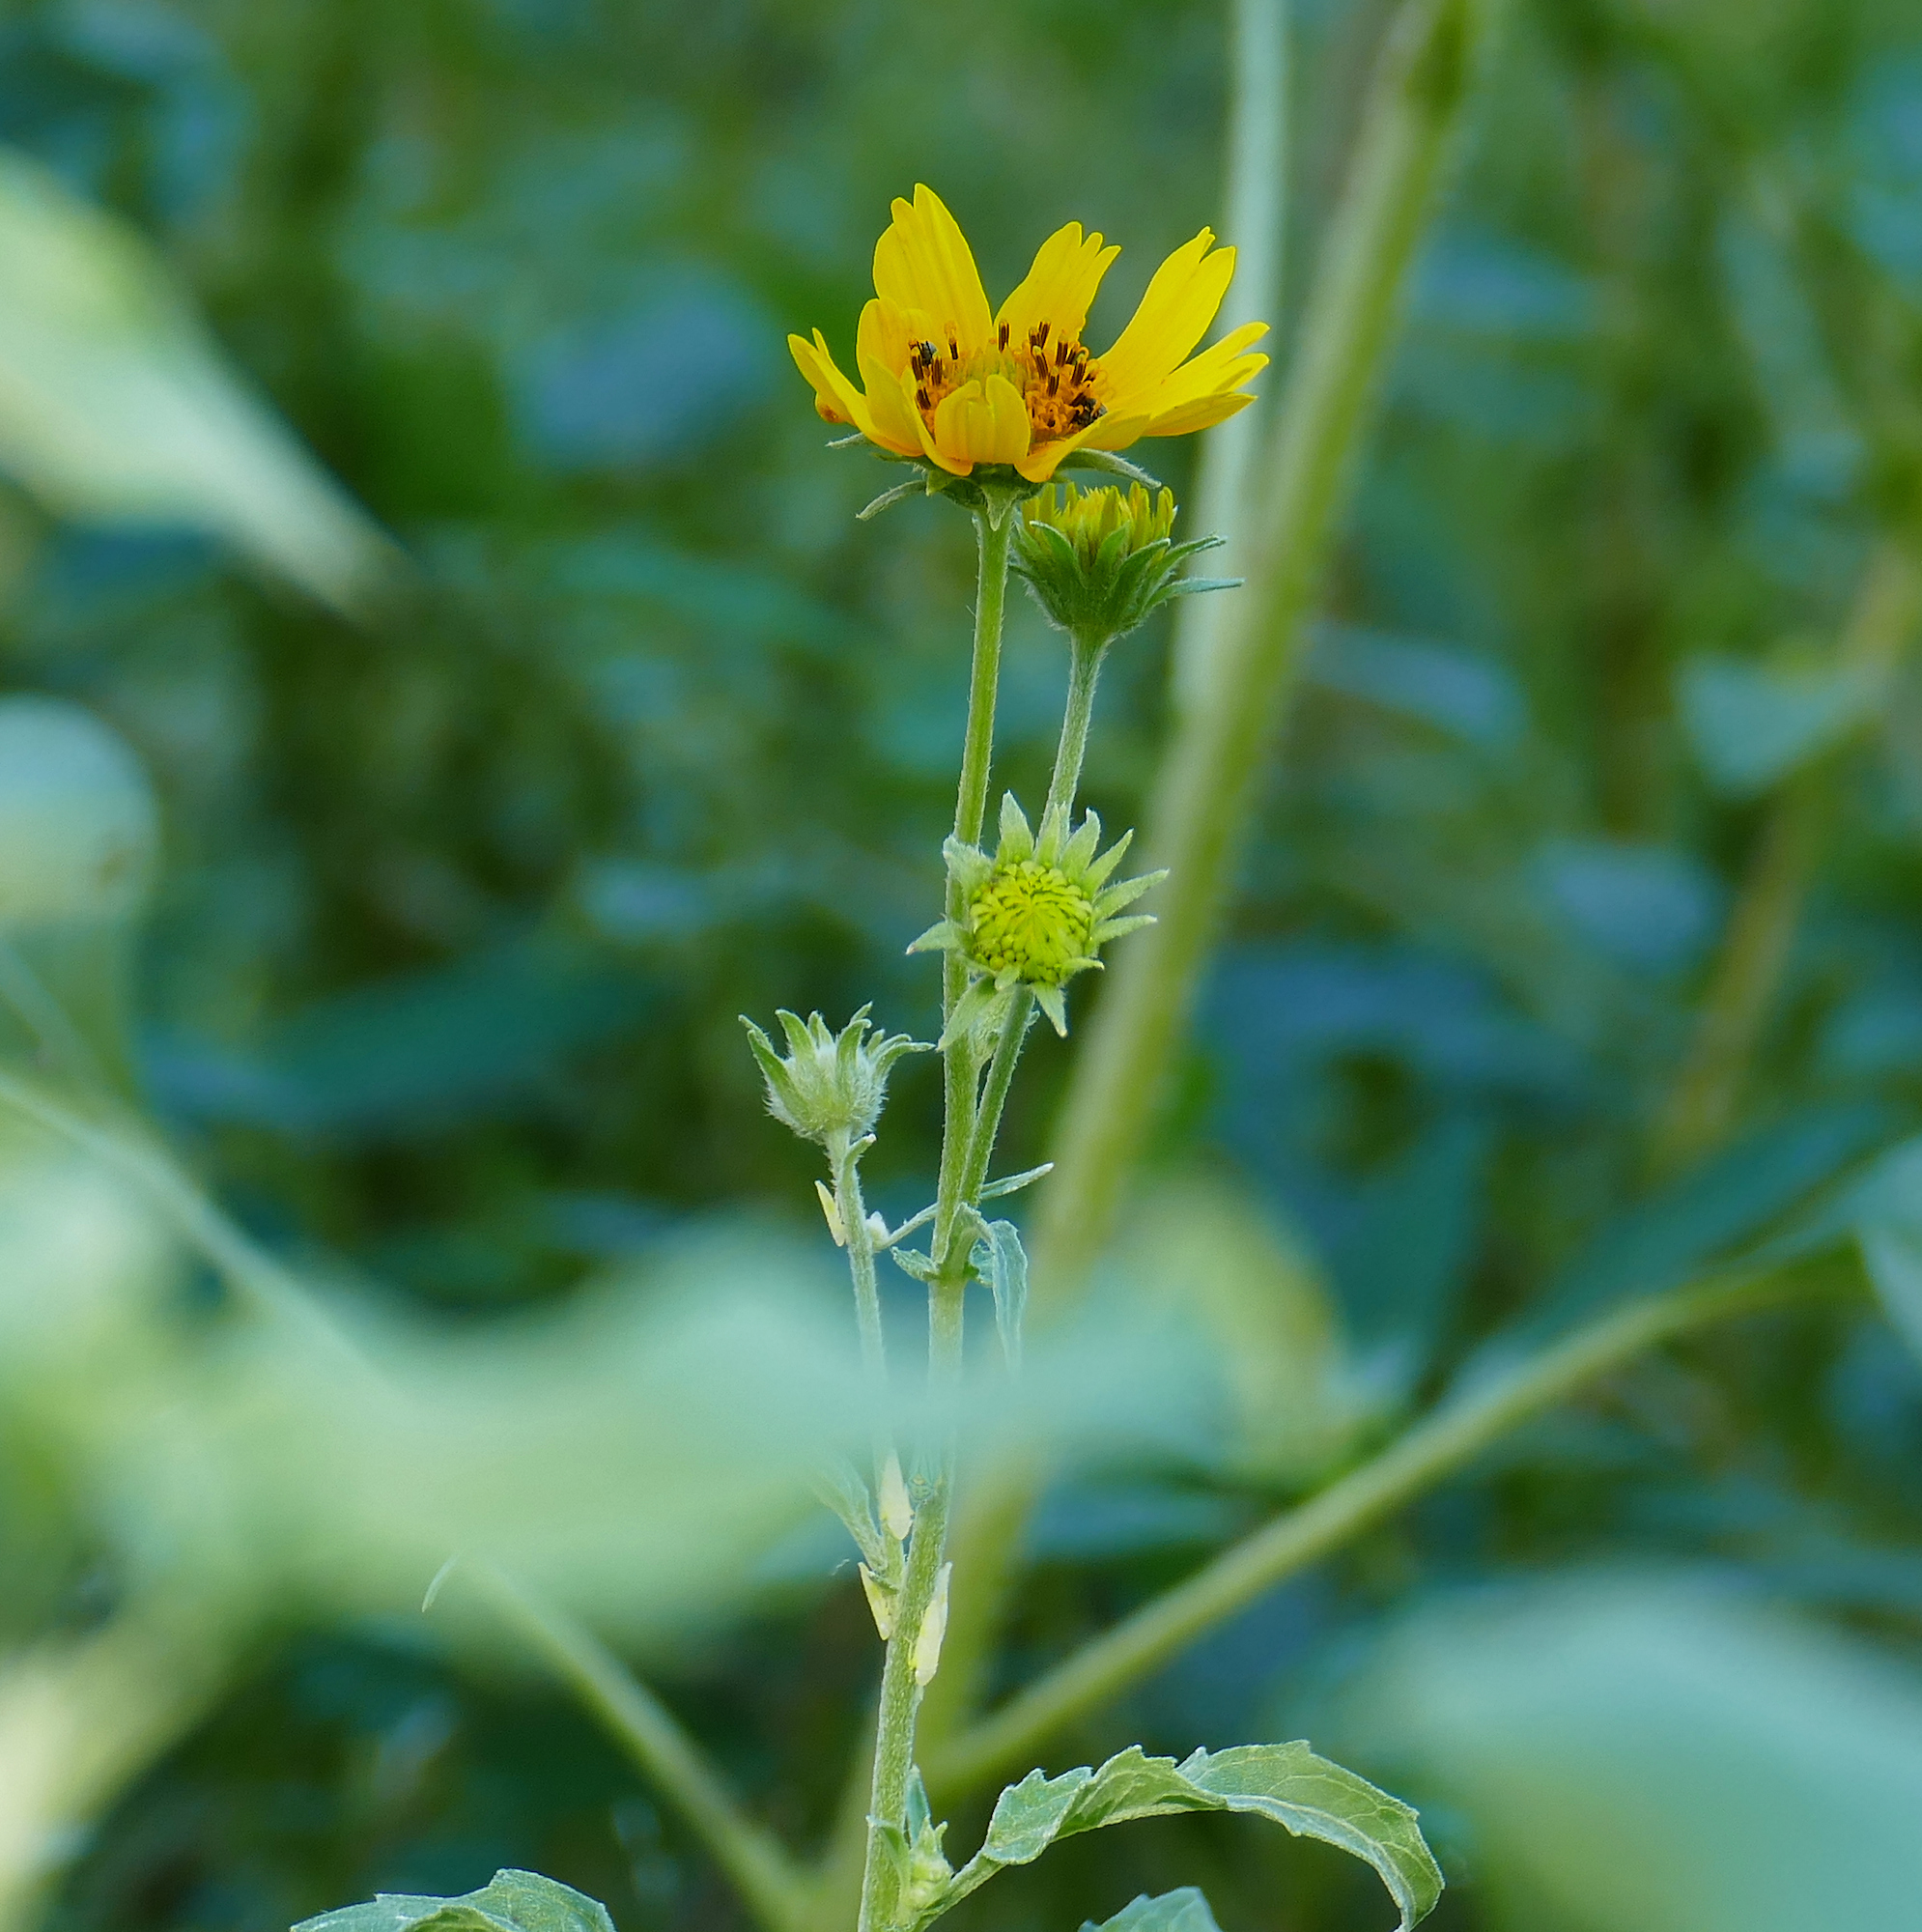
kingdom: Plantae
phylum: Tracheophyta
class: Magnoliopsida
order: Asterales
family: Asteraceae
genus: Verbesina
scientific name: Verbesina encelioides
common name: Golden crownbeard
